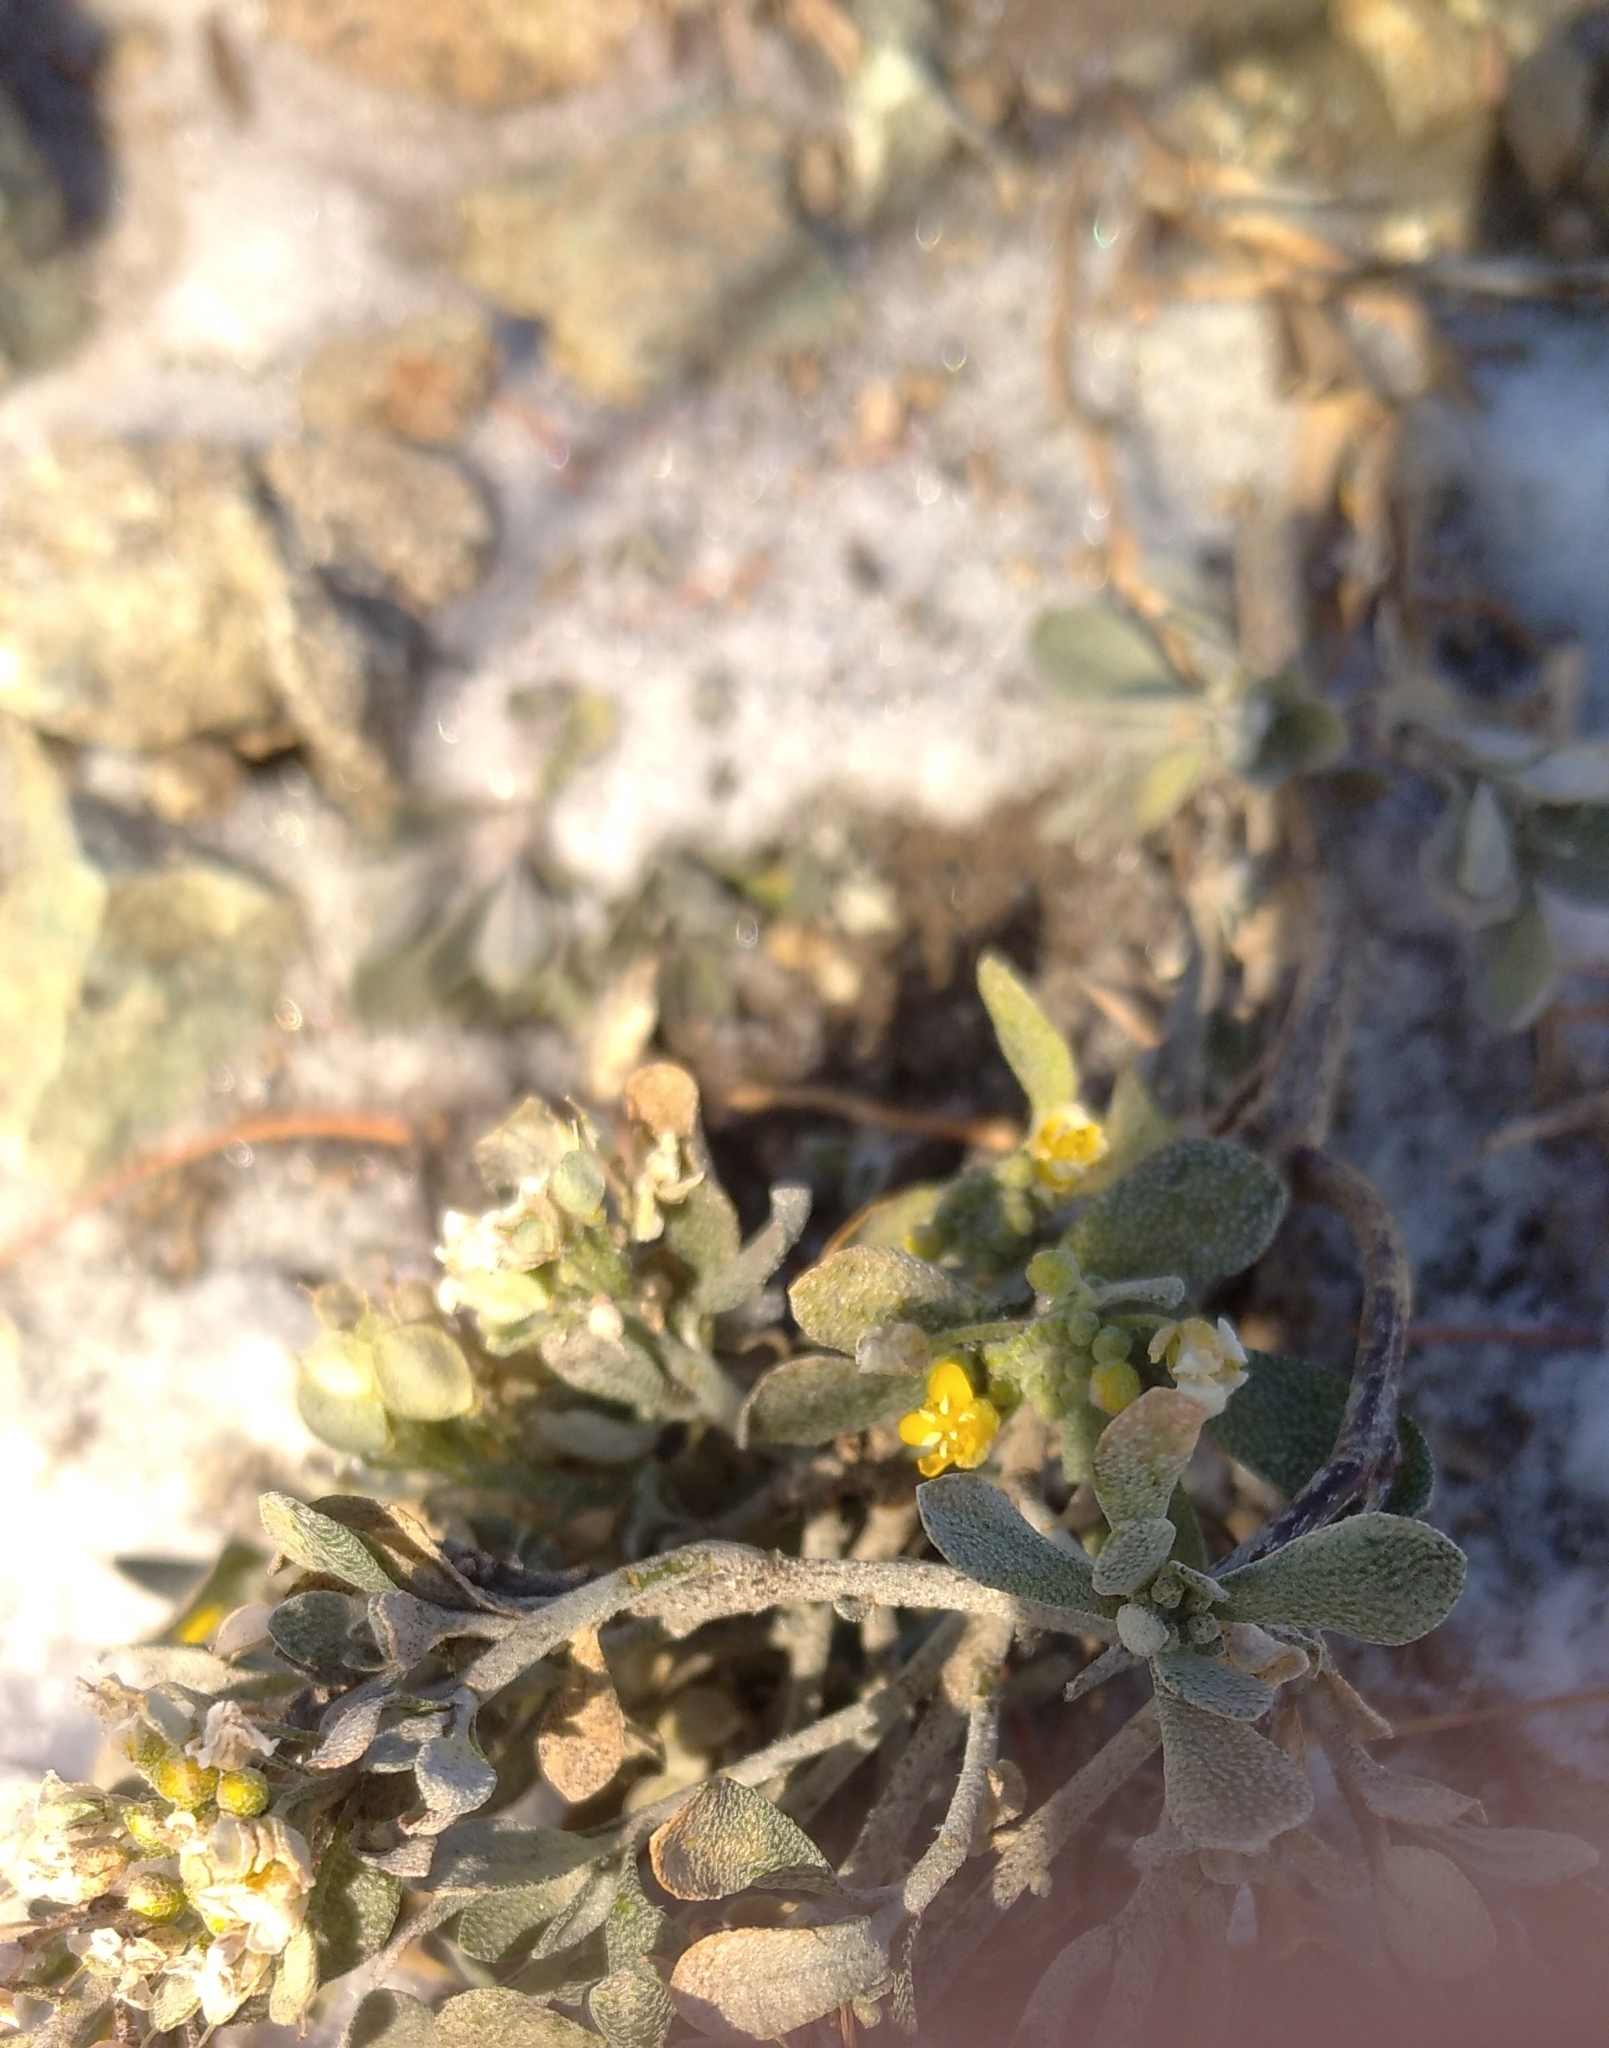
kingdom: Plantae
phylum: Tracheophyta
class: Magnoliopsida
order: Brassicales
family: Brassicaceae
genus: Odontarrhena
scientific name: Odontarrhena obovata
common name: American alyssum
